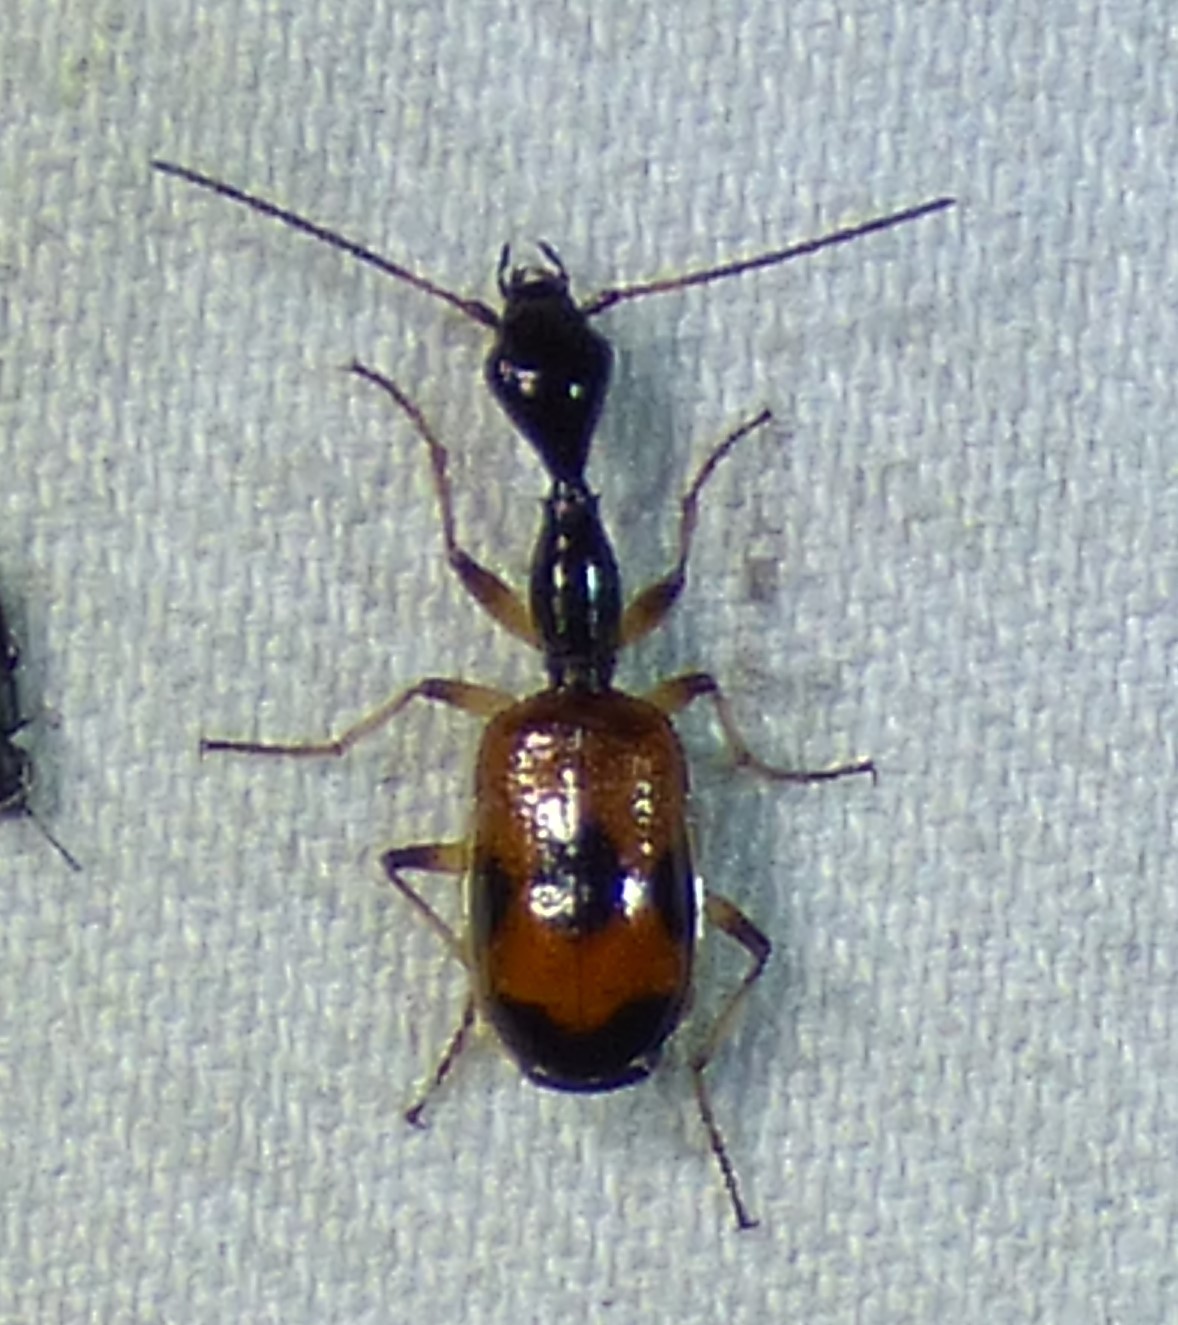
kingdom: Animalia
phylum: Arthropoda
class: Insecta
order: Coleoptera
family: Carabidae
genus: Colliuris
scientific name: Colliuris pensylvanica
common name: Long-necked ground beetle
